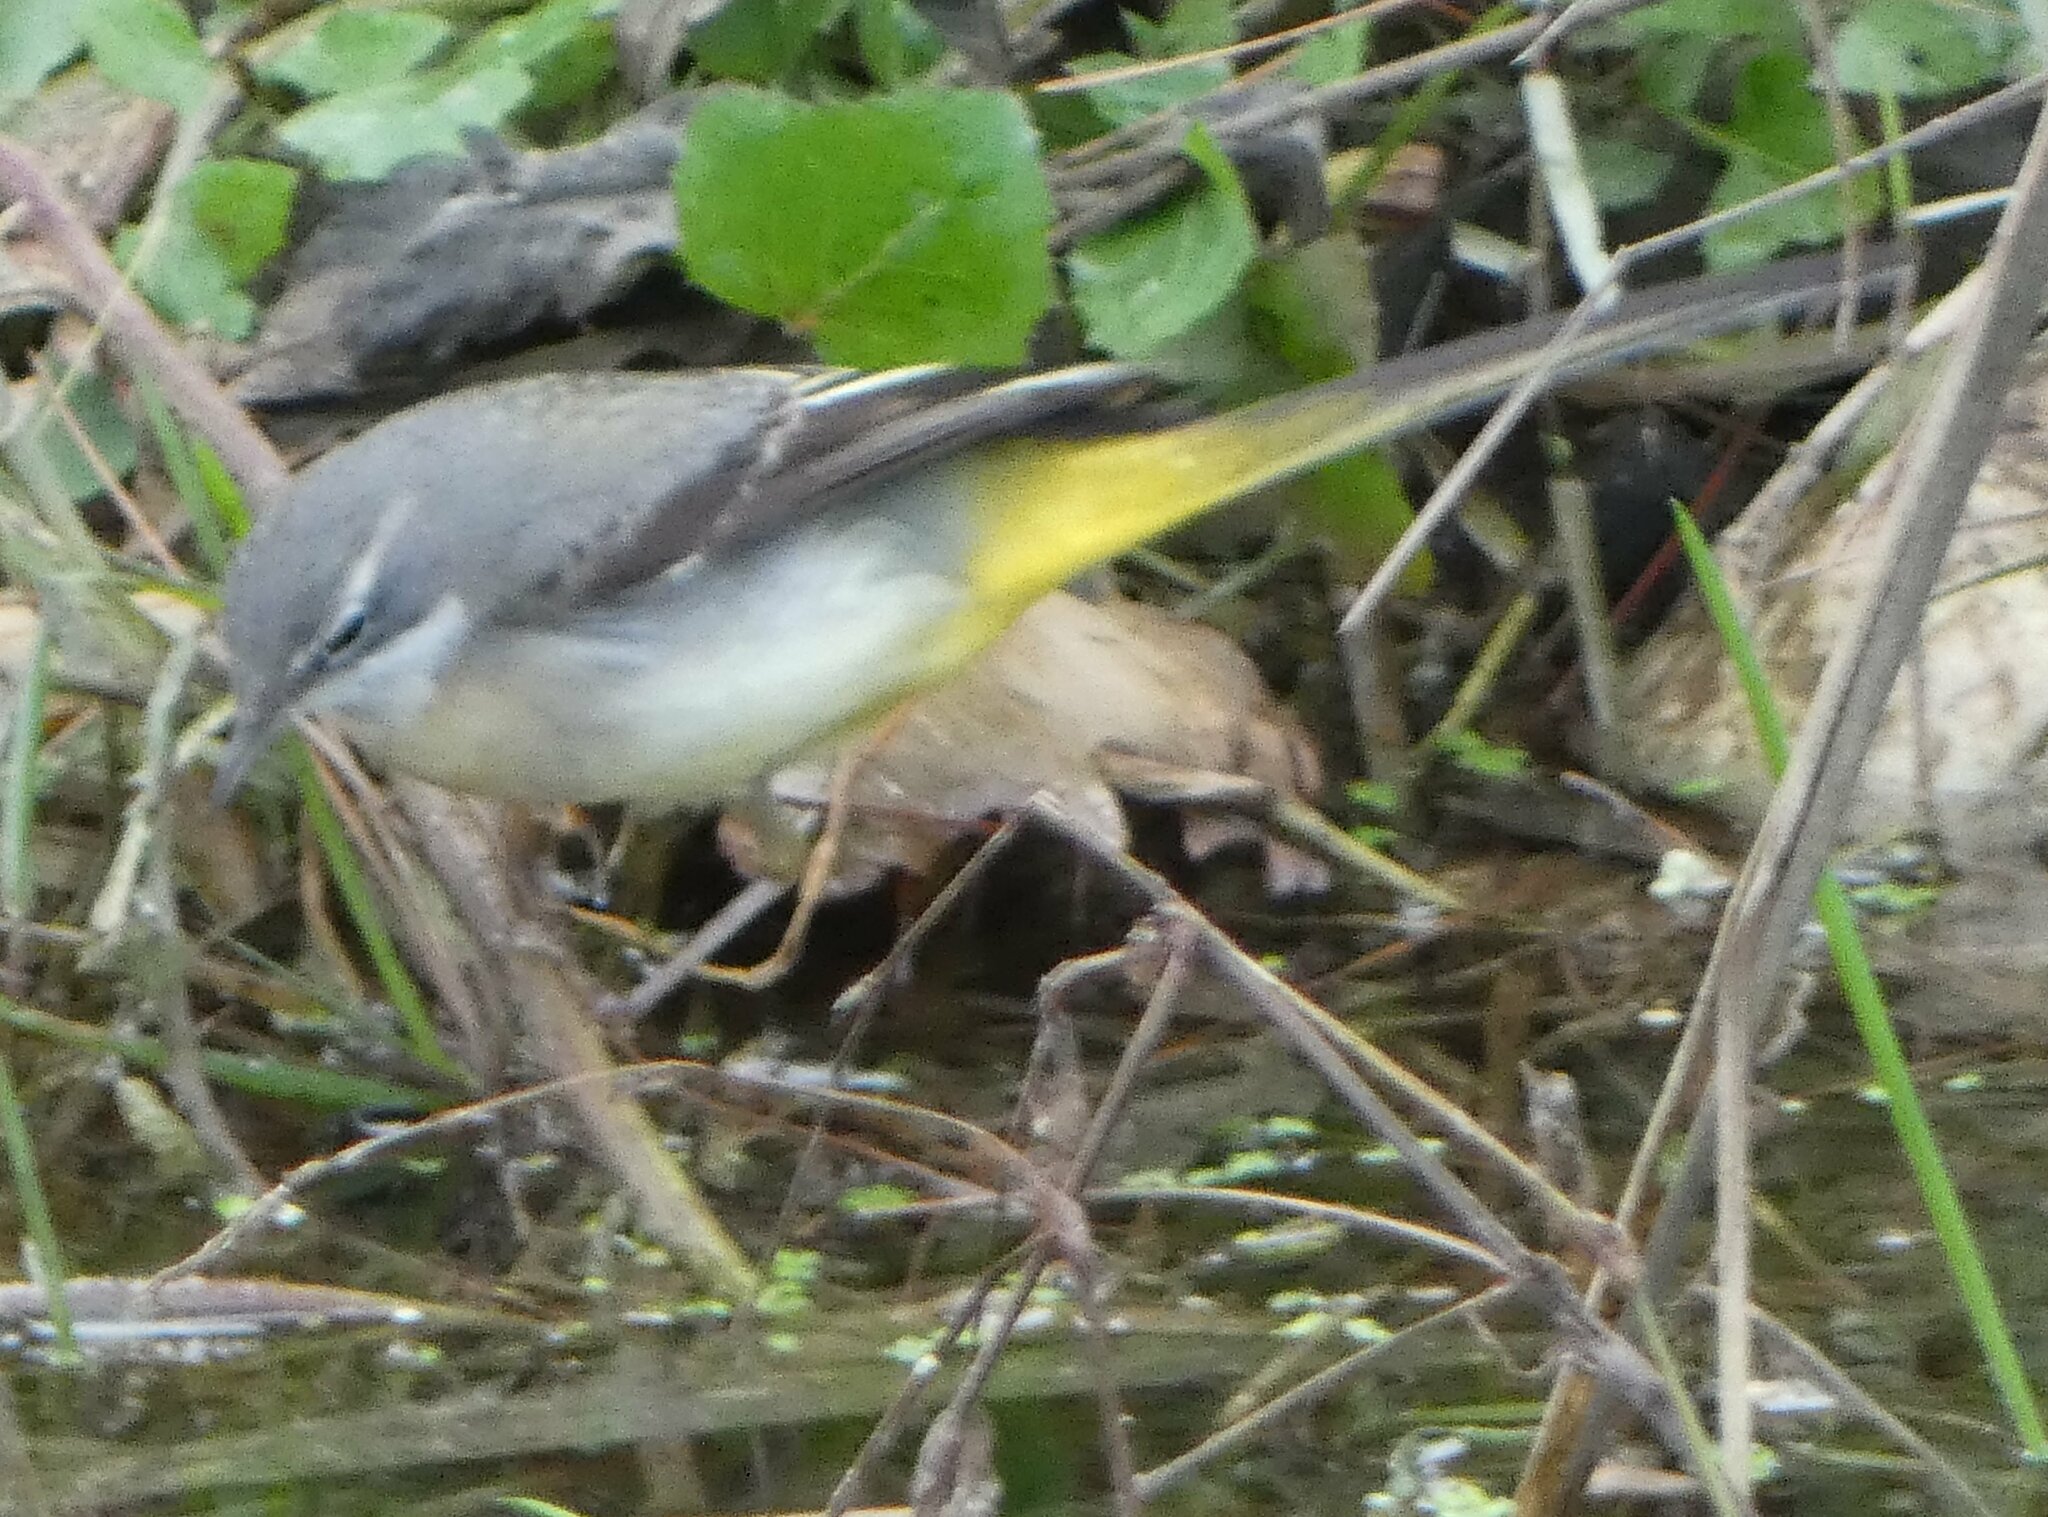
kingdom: Animalia
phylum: Chordata
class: Aves
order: Passeriformes
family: Motacillidae
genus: Motacilla
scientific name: Motacilla cinerea
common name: Grey wagtail
